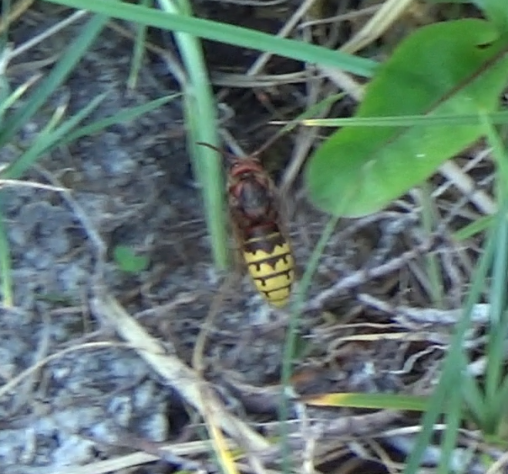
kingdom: Animalia
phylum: Arthropoda
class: Insecta
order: Hymenoptera
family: Vespidae
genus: Vespa
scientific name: Vespa crabro
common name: Hornet
